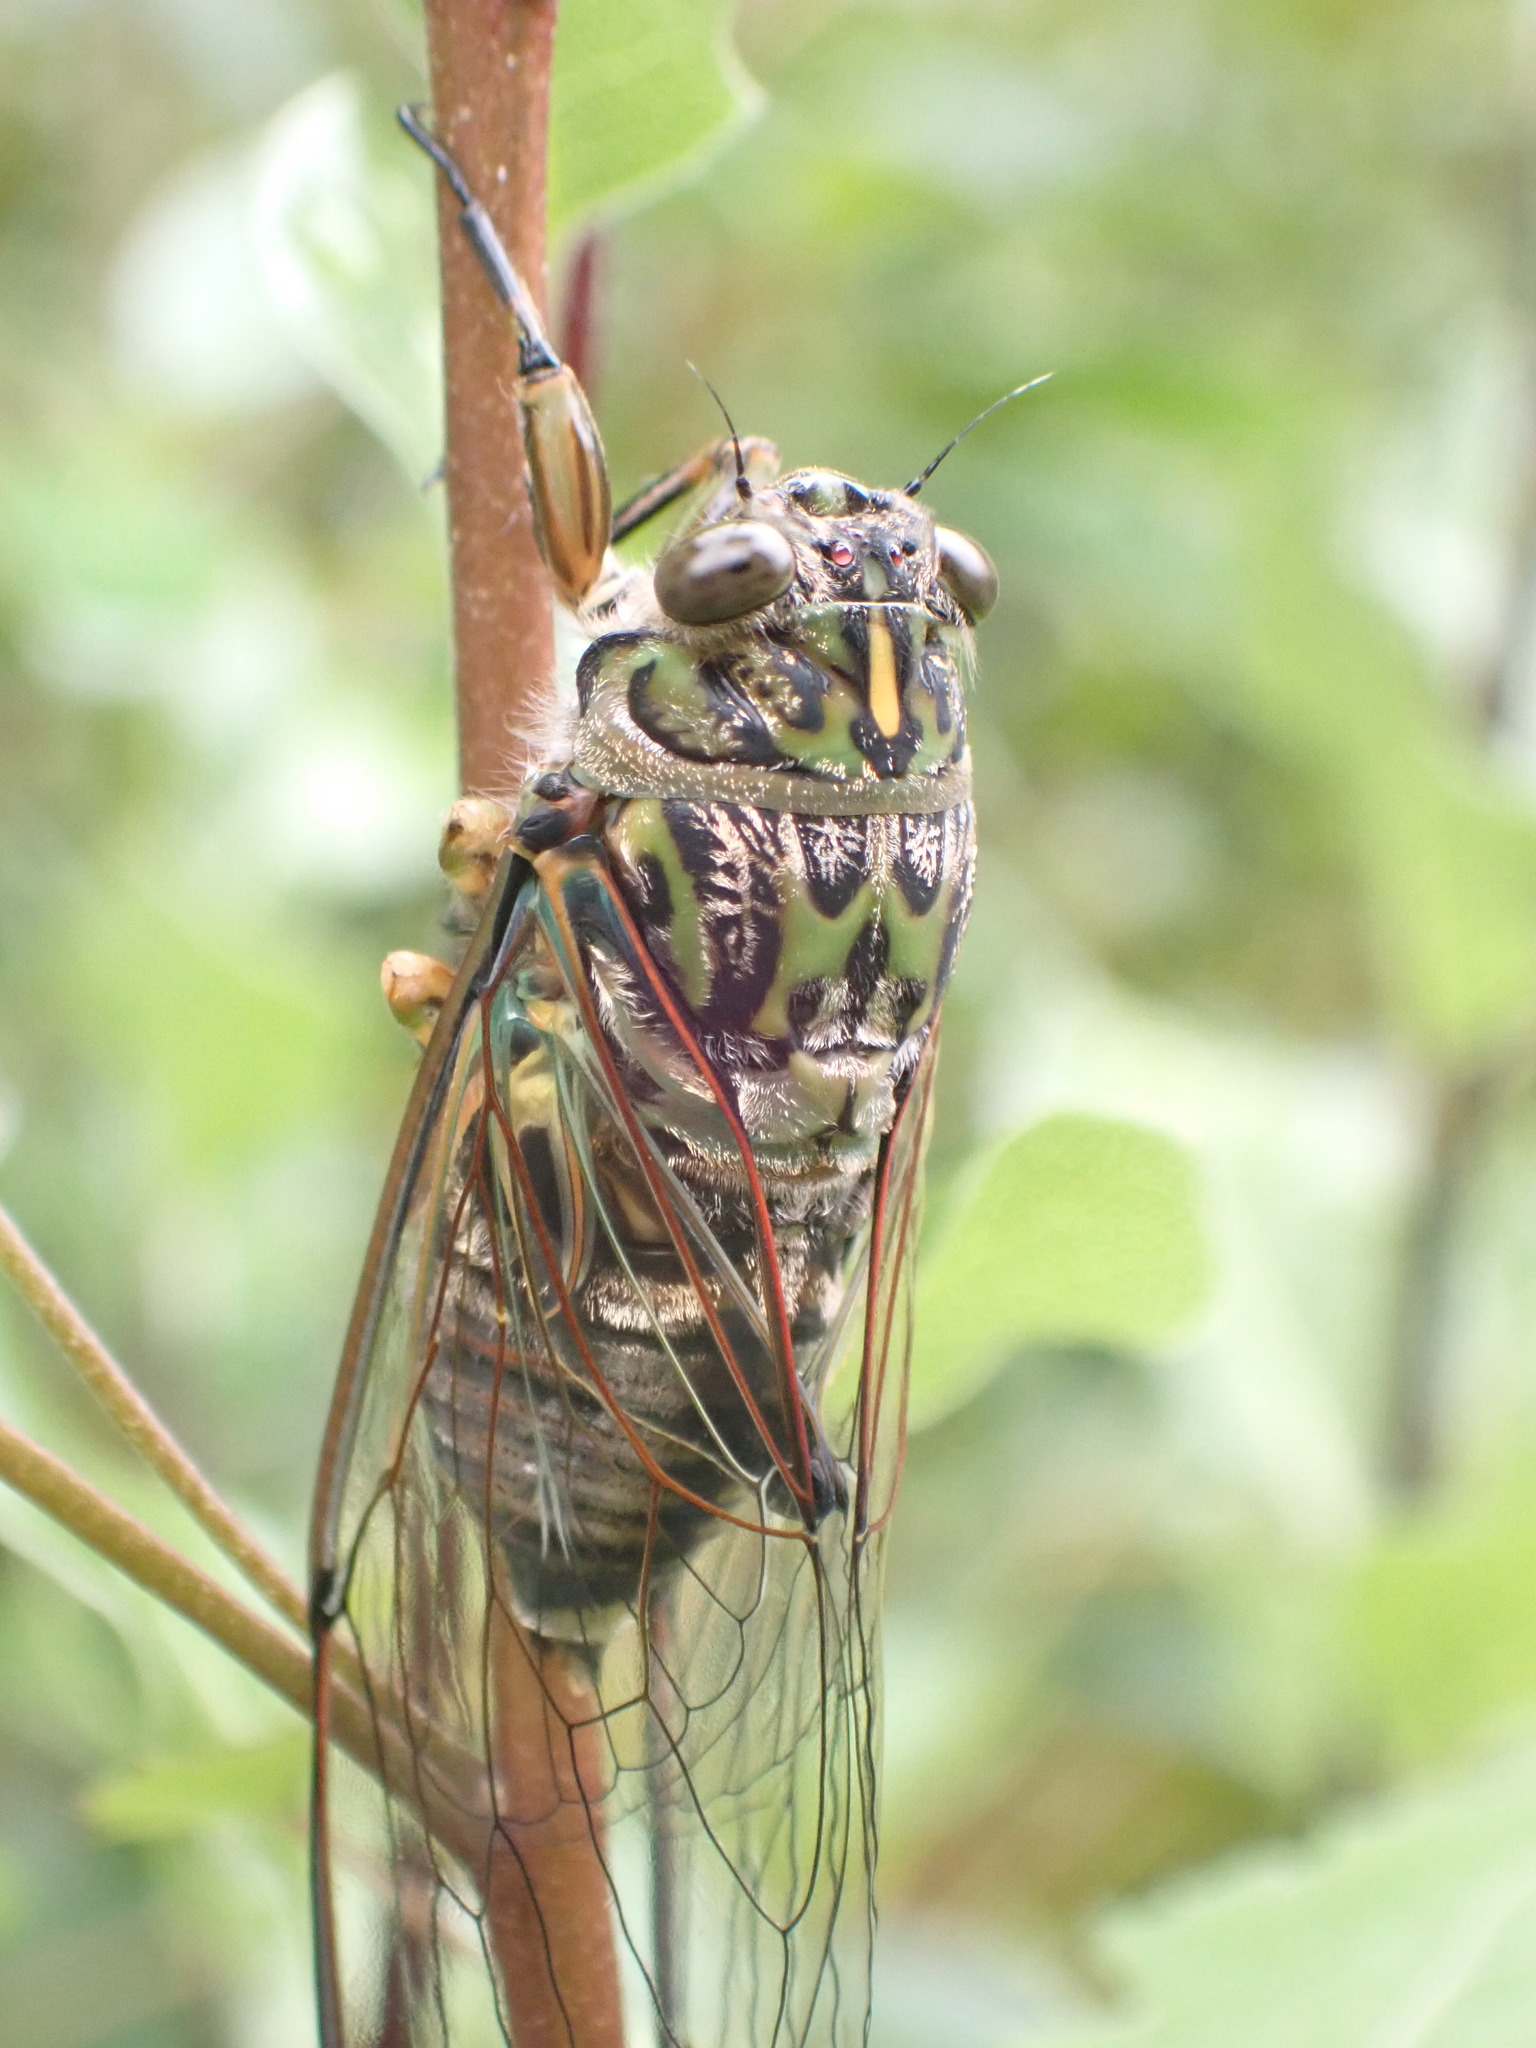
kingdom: Animalia
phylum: Arthropoda
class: Insecta
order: Hemiptera
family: Cicadidae
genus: Amphipsalta
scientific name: Amphipsalta zelandica
